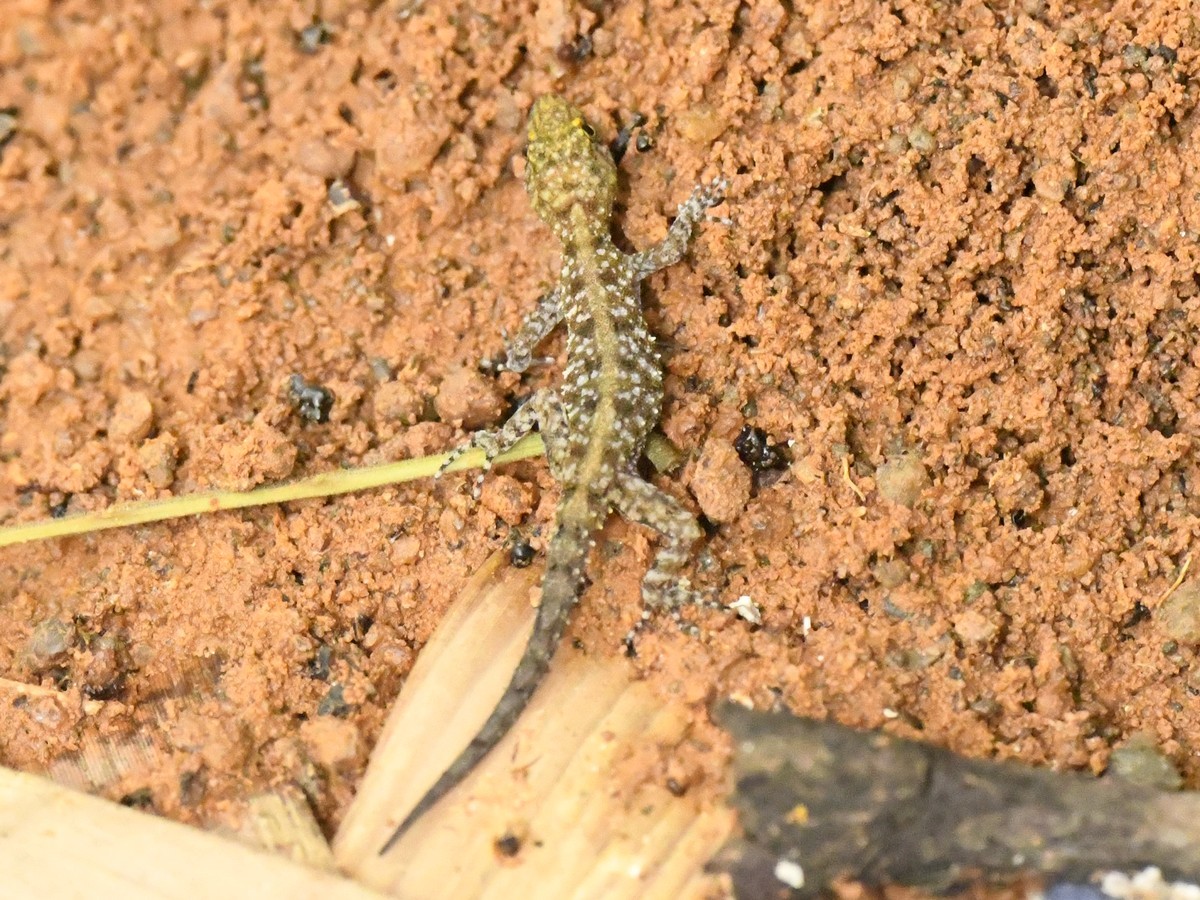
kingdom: Animalia
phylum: Chordata
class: Squamata
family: Gekkonidae
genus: Cnemaspis
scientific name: Cnemaspis mysoriensis
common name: Mysore day gecko
